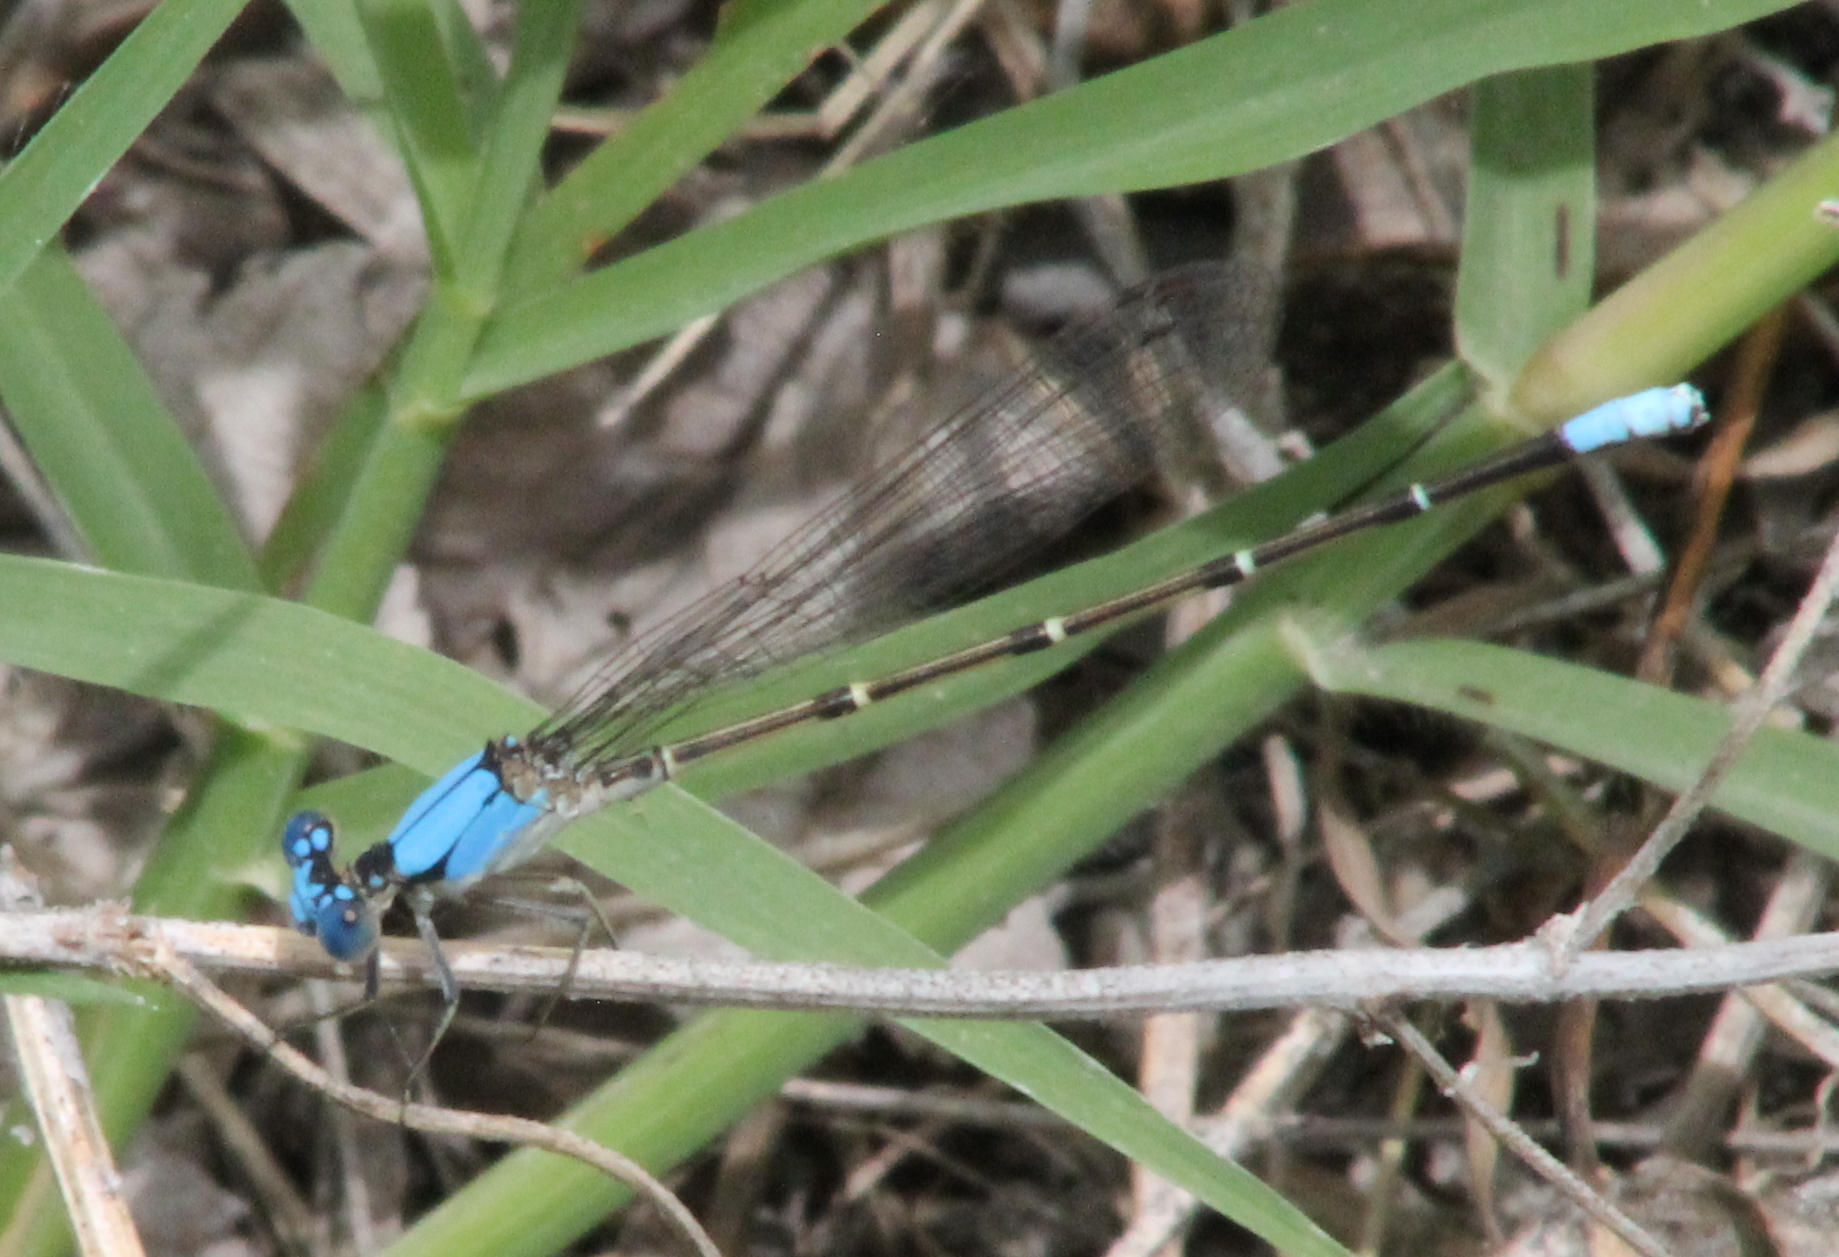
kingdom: Animalia
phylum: Arthropoda
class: Insecta
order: Odonata
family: Coenagrionidae
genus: Argia
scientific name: Argia apicalis
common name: Blue-fronted dancer
